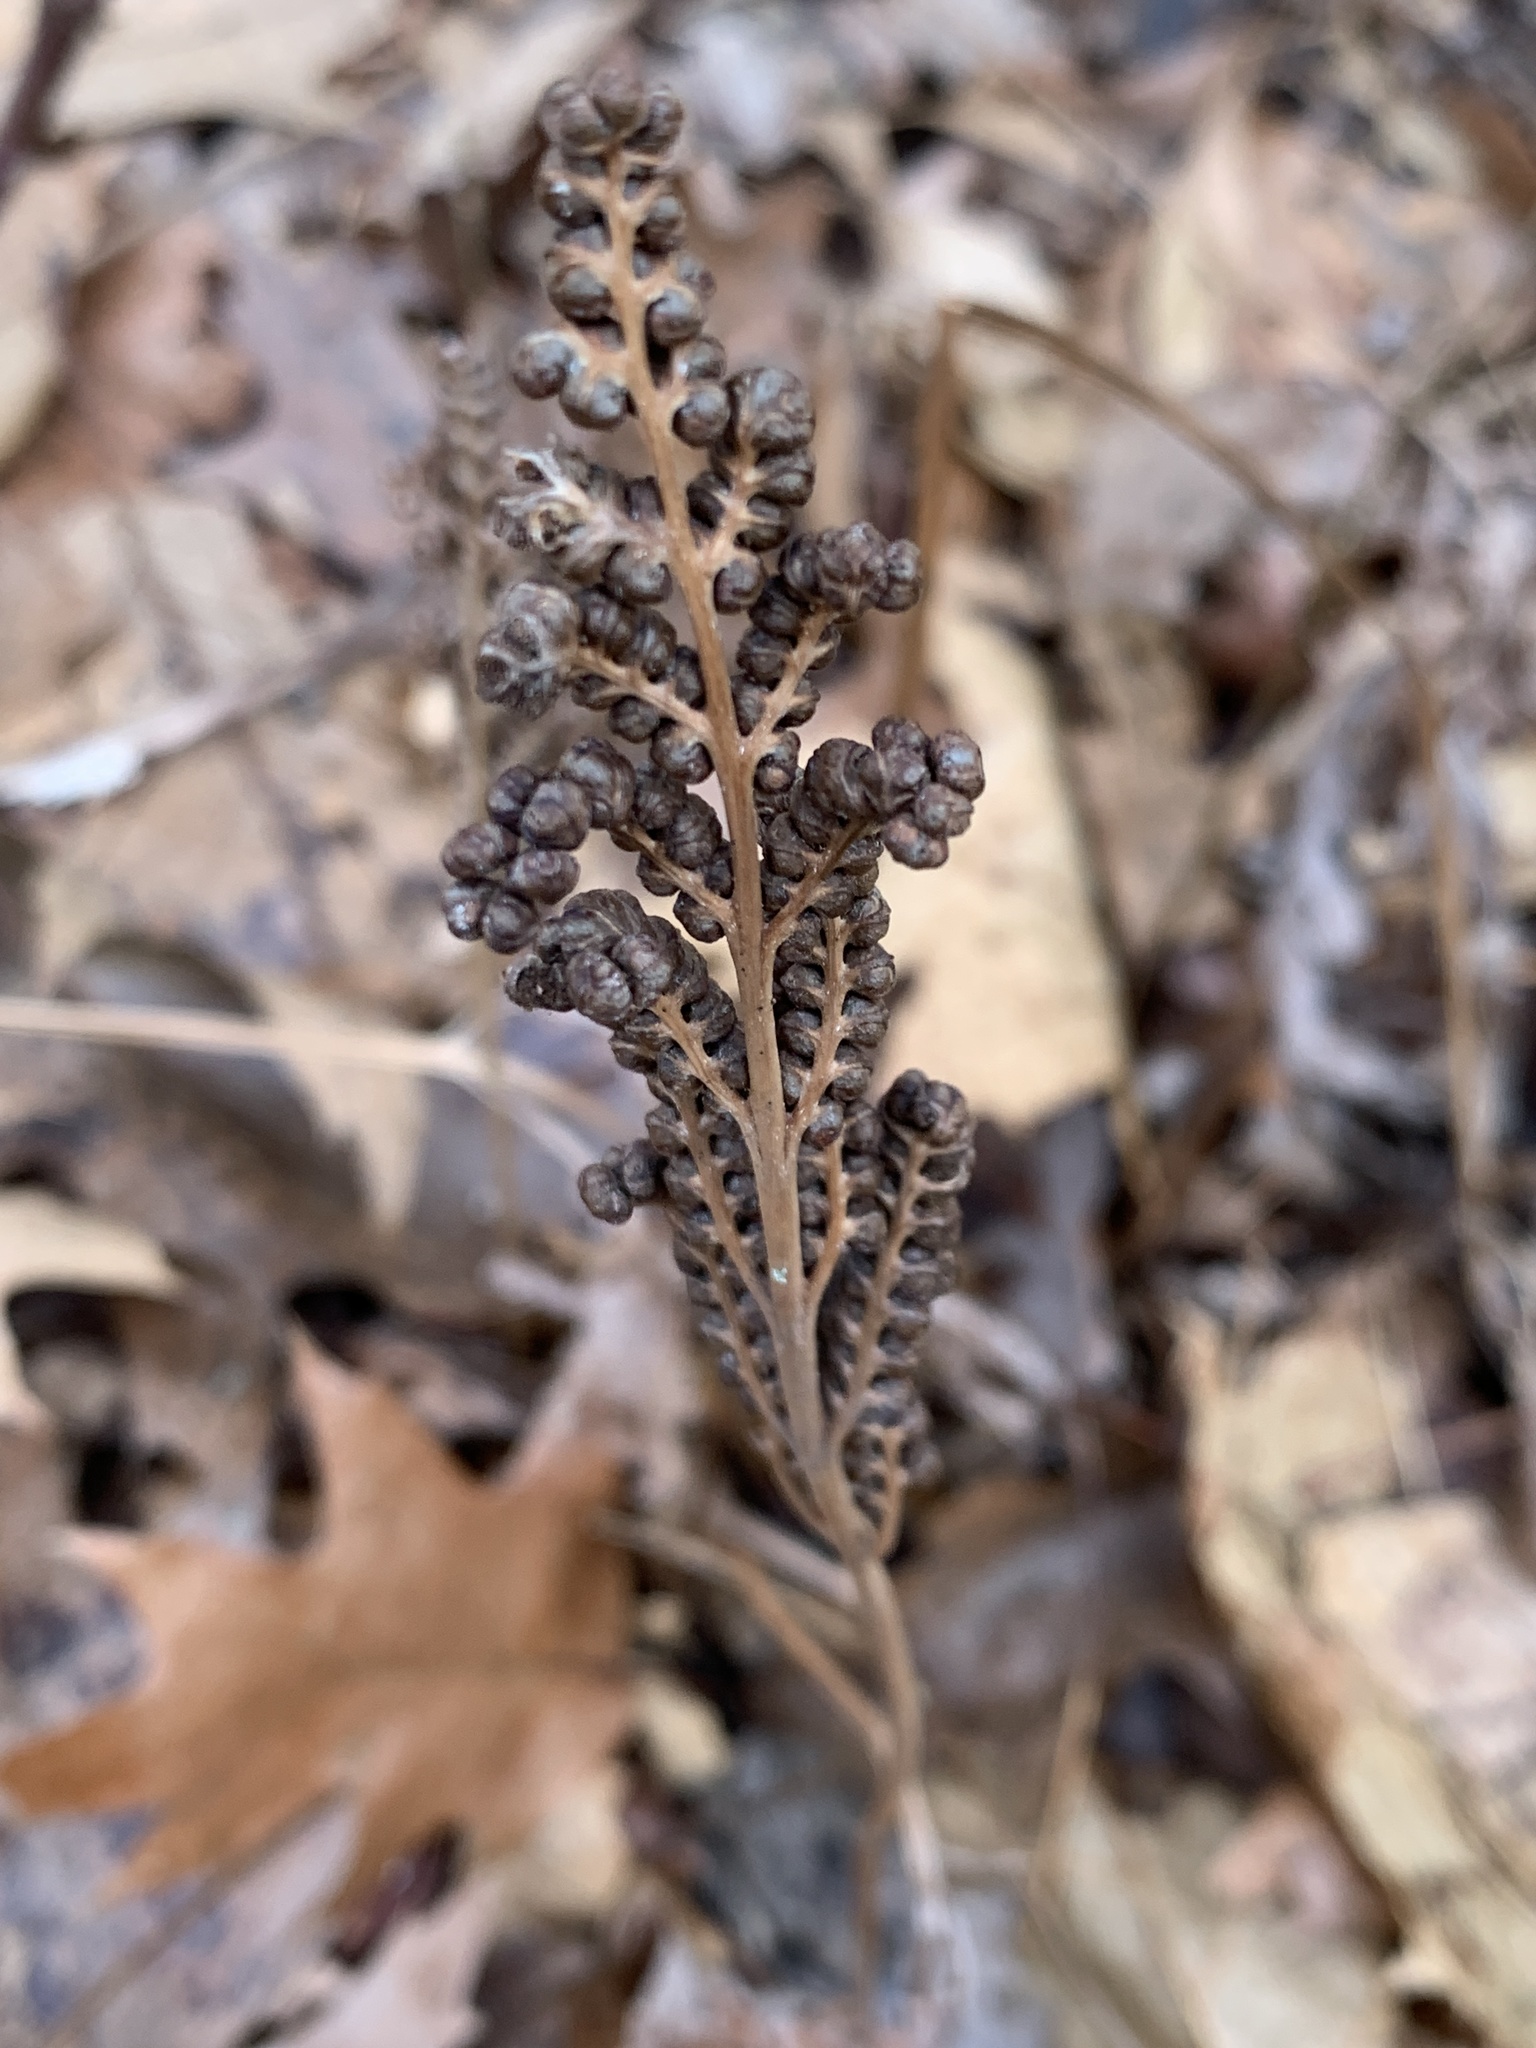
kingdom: Plantae
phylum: Tracheophyta
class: Polypodiopsida
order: Polypodiales
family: Onocleaceae
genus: Onoclea
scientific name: Onoclea sensibilis
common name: Sensitive fern
